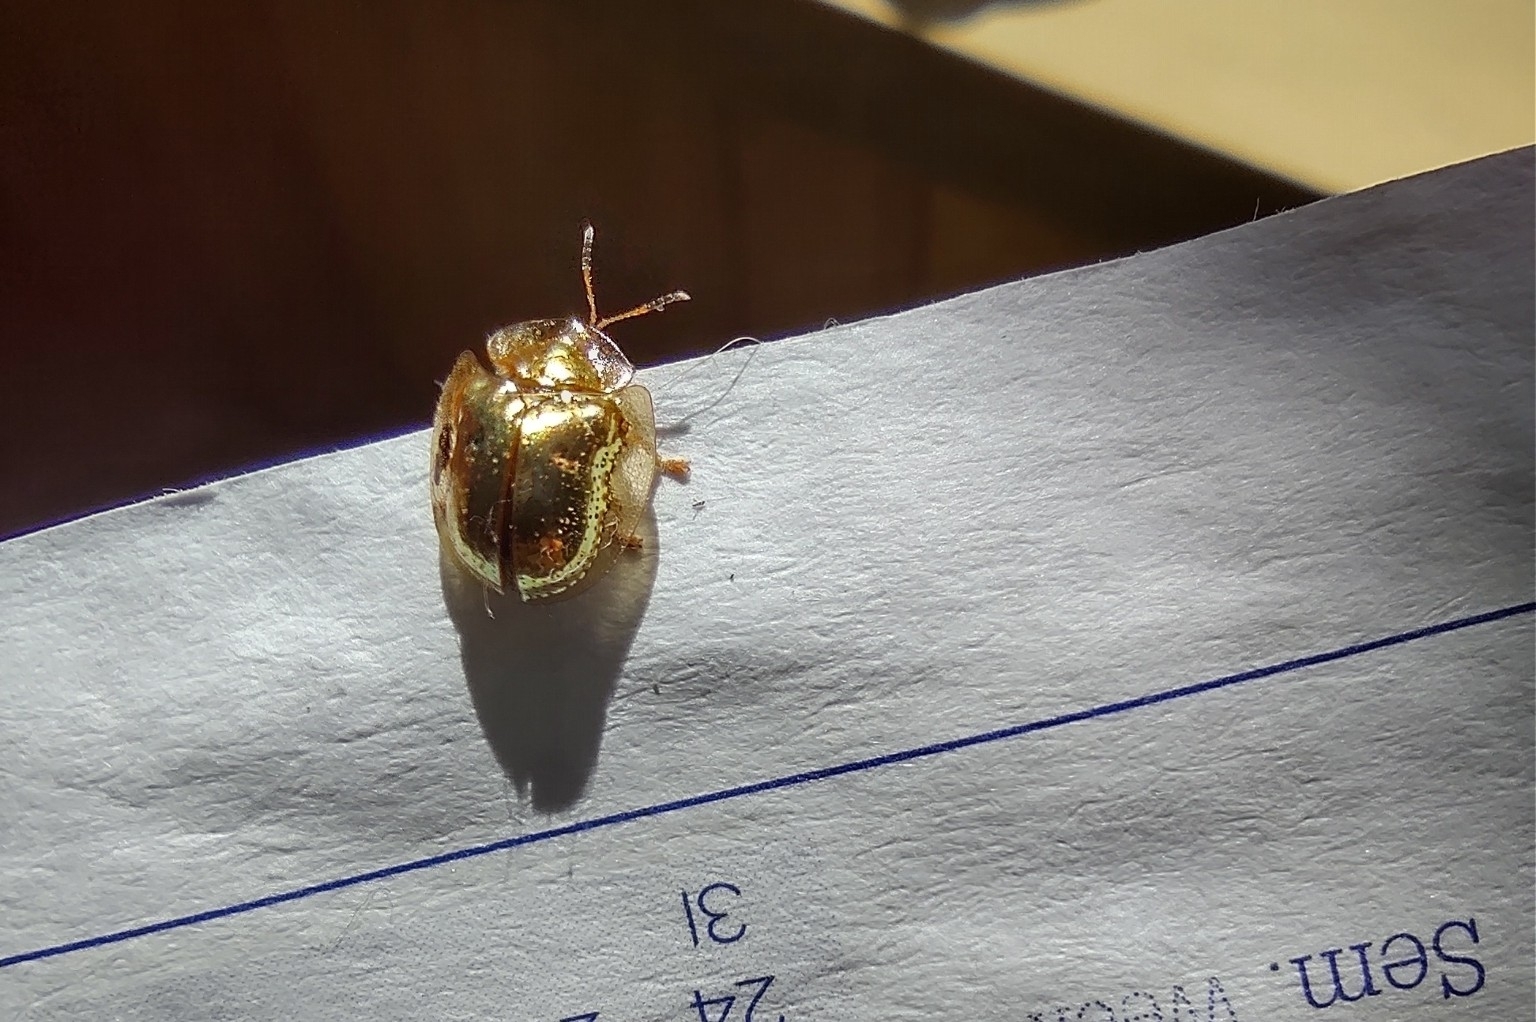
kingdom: Animalia
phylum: Arthropoda
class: Insecta
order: Coleoptera
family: Chrysomelidae
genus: Charidotella
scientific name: Charidotella sexpunctata
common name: Golden tortoise beetle
